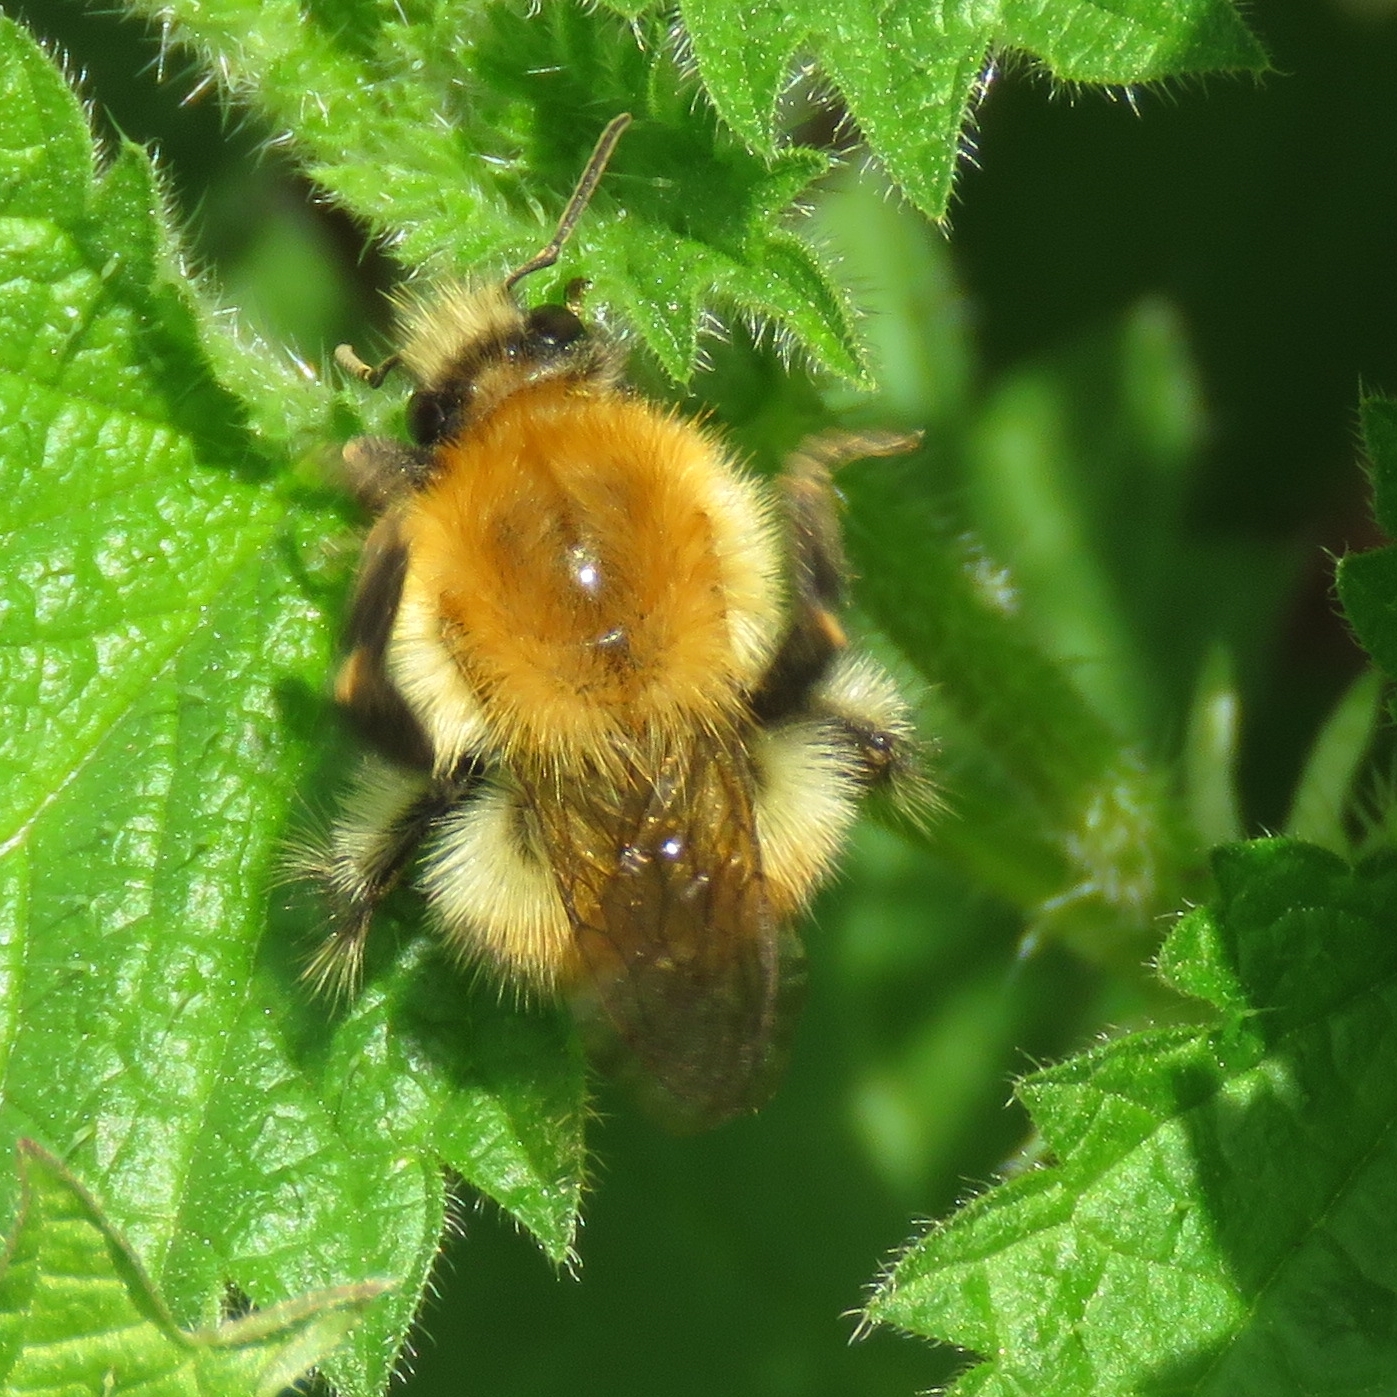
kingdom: Animalia
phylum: Arthropoda
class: Insecta
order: Hymenoptera
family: Apidae
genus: Bombus
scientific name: Bombus pascuorum
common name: Common carder bee
